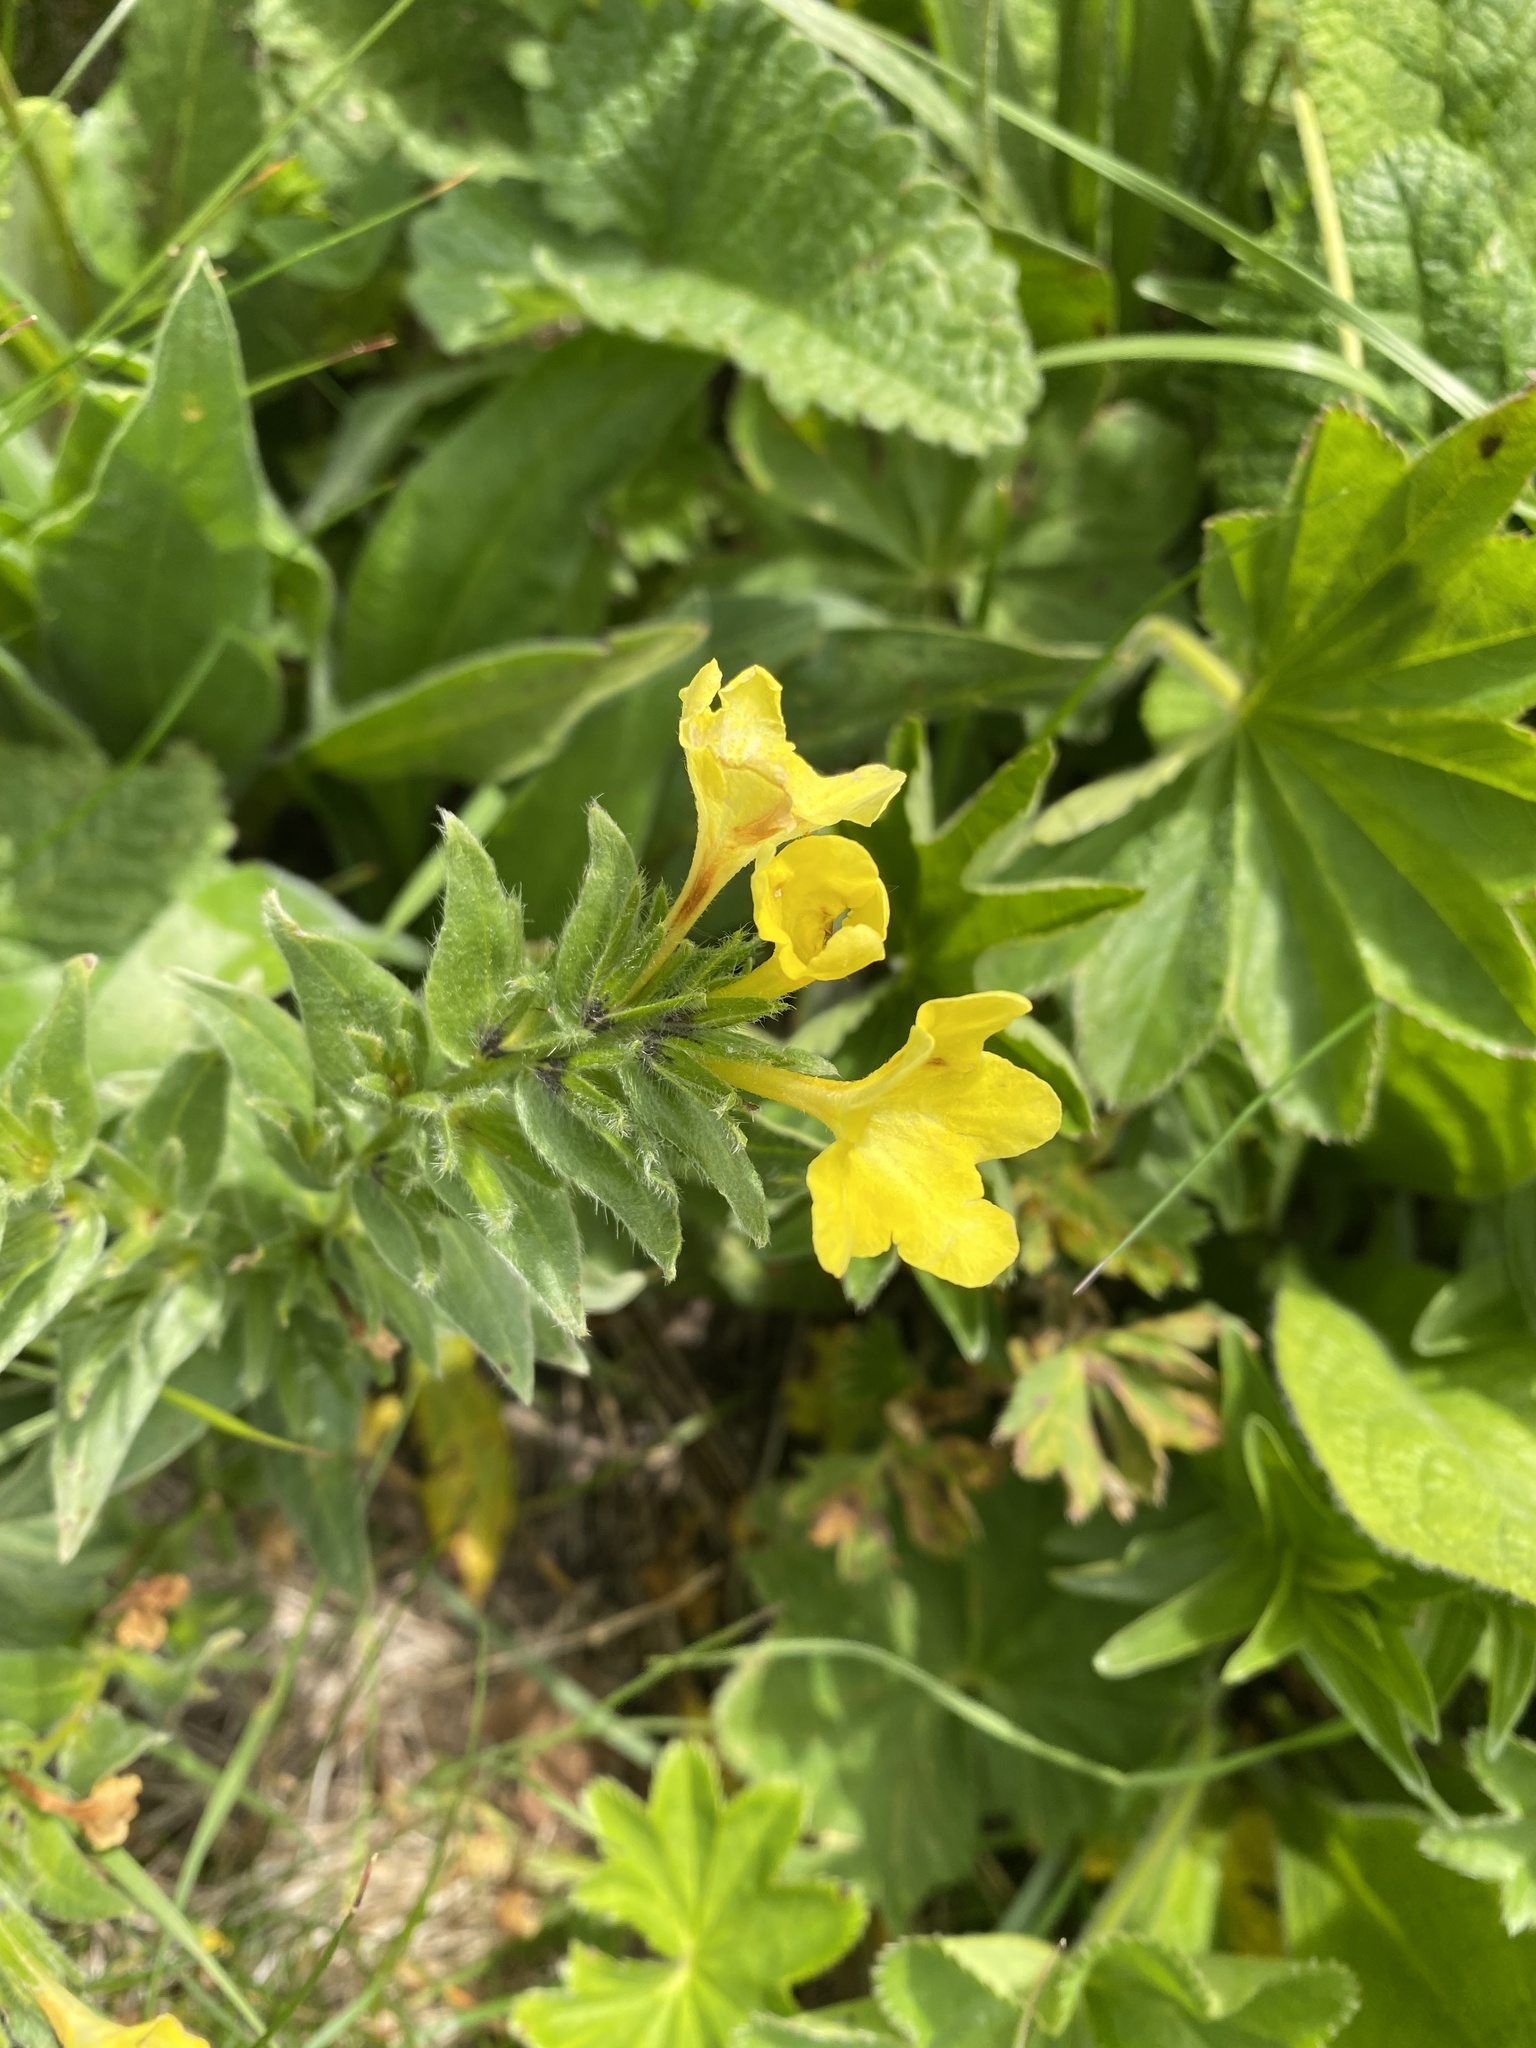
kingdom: Plantae
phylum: Tracheophyta
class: Magnoliopsida
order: Boraginales
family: Boraginaceae
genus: Huynhia
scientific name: Huynhia pulchra
